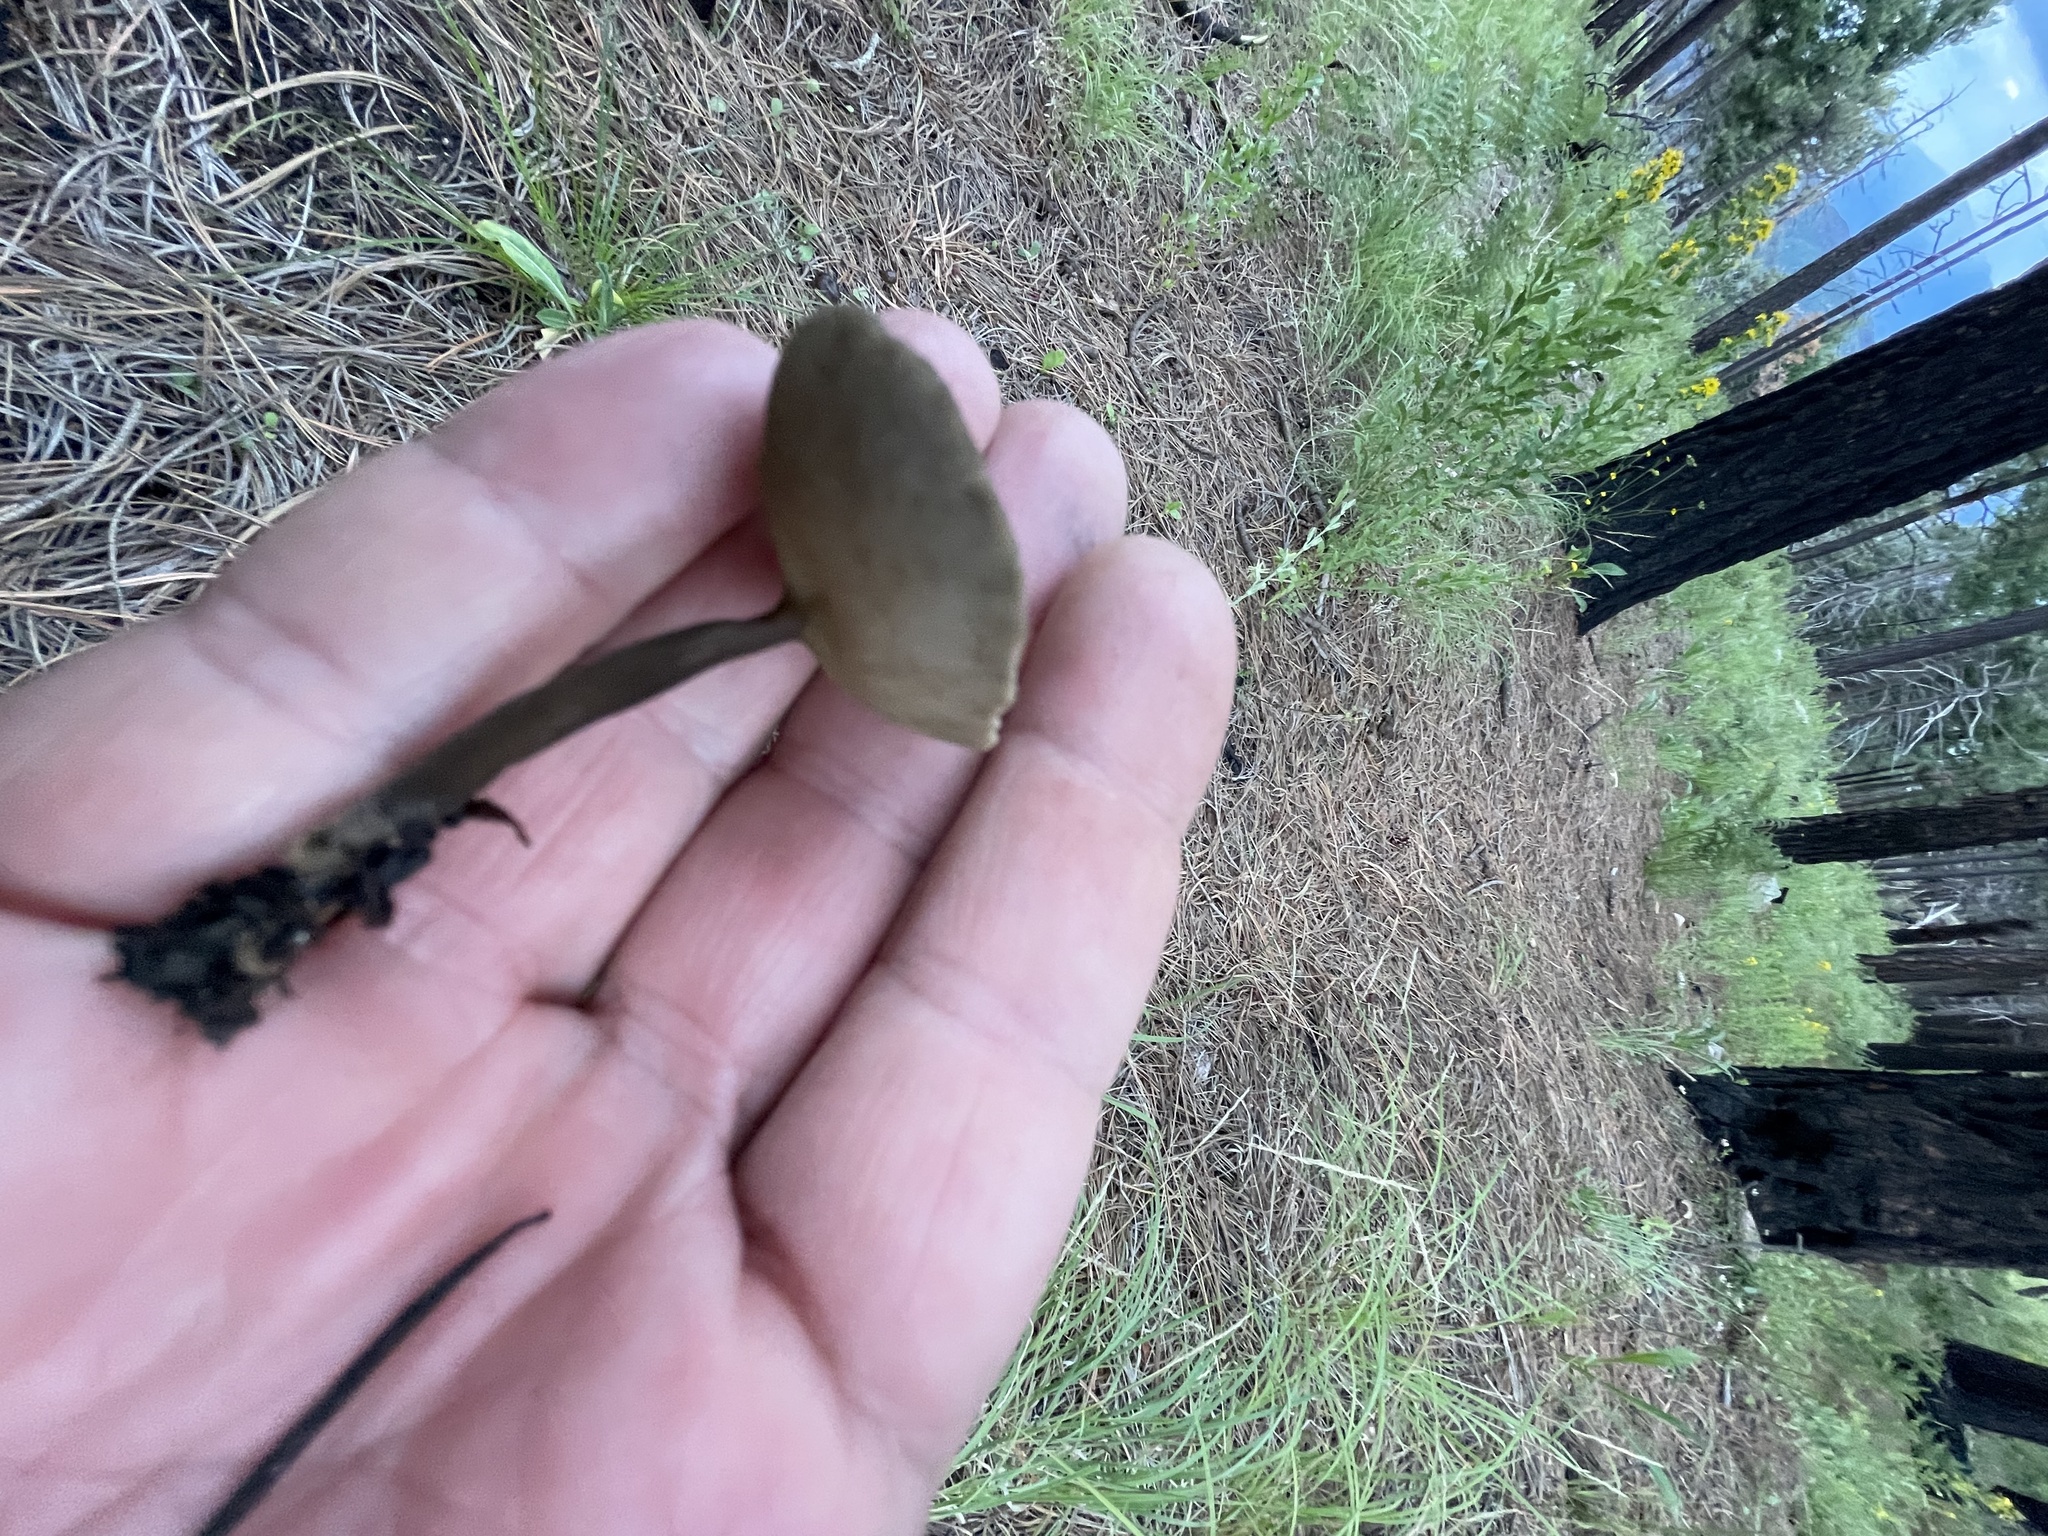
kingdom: Fungi
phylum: Ascomycota
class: Pezizomycetes
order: Pezizales
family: Helvellaceae
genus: Helvella
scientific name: Helvella macropus
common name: Felt saddle
